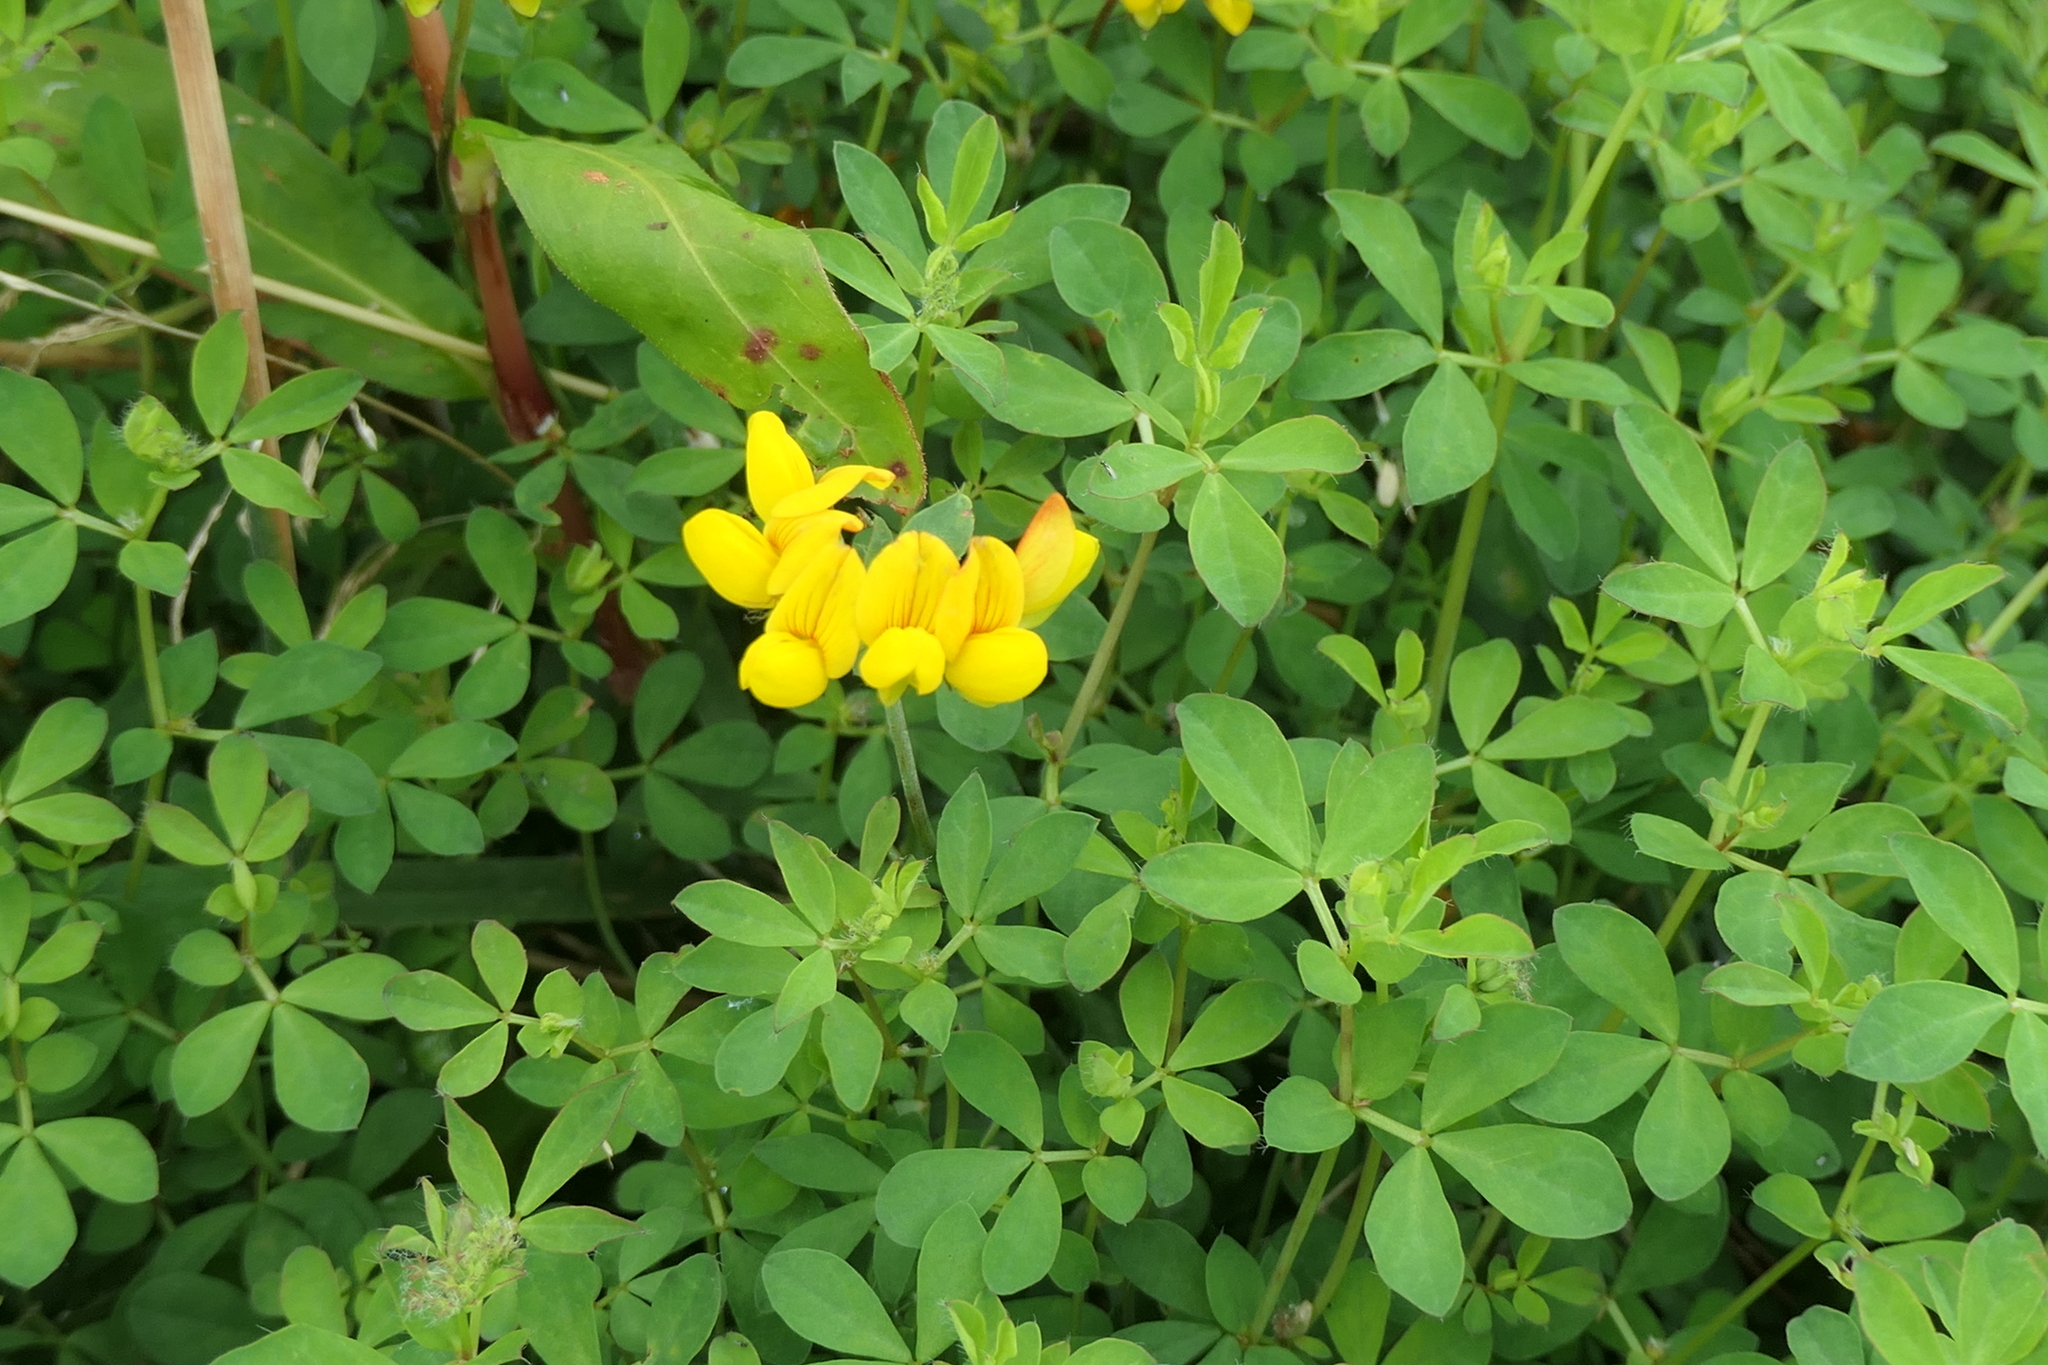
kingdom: Plantae
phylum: Tracheophyta
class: Magnoliopsida
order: Fabales
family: Fabaceae
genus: Lotus
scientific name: Lotus pedunculatus
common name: Greater birdsfoot-trefoil
